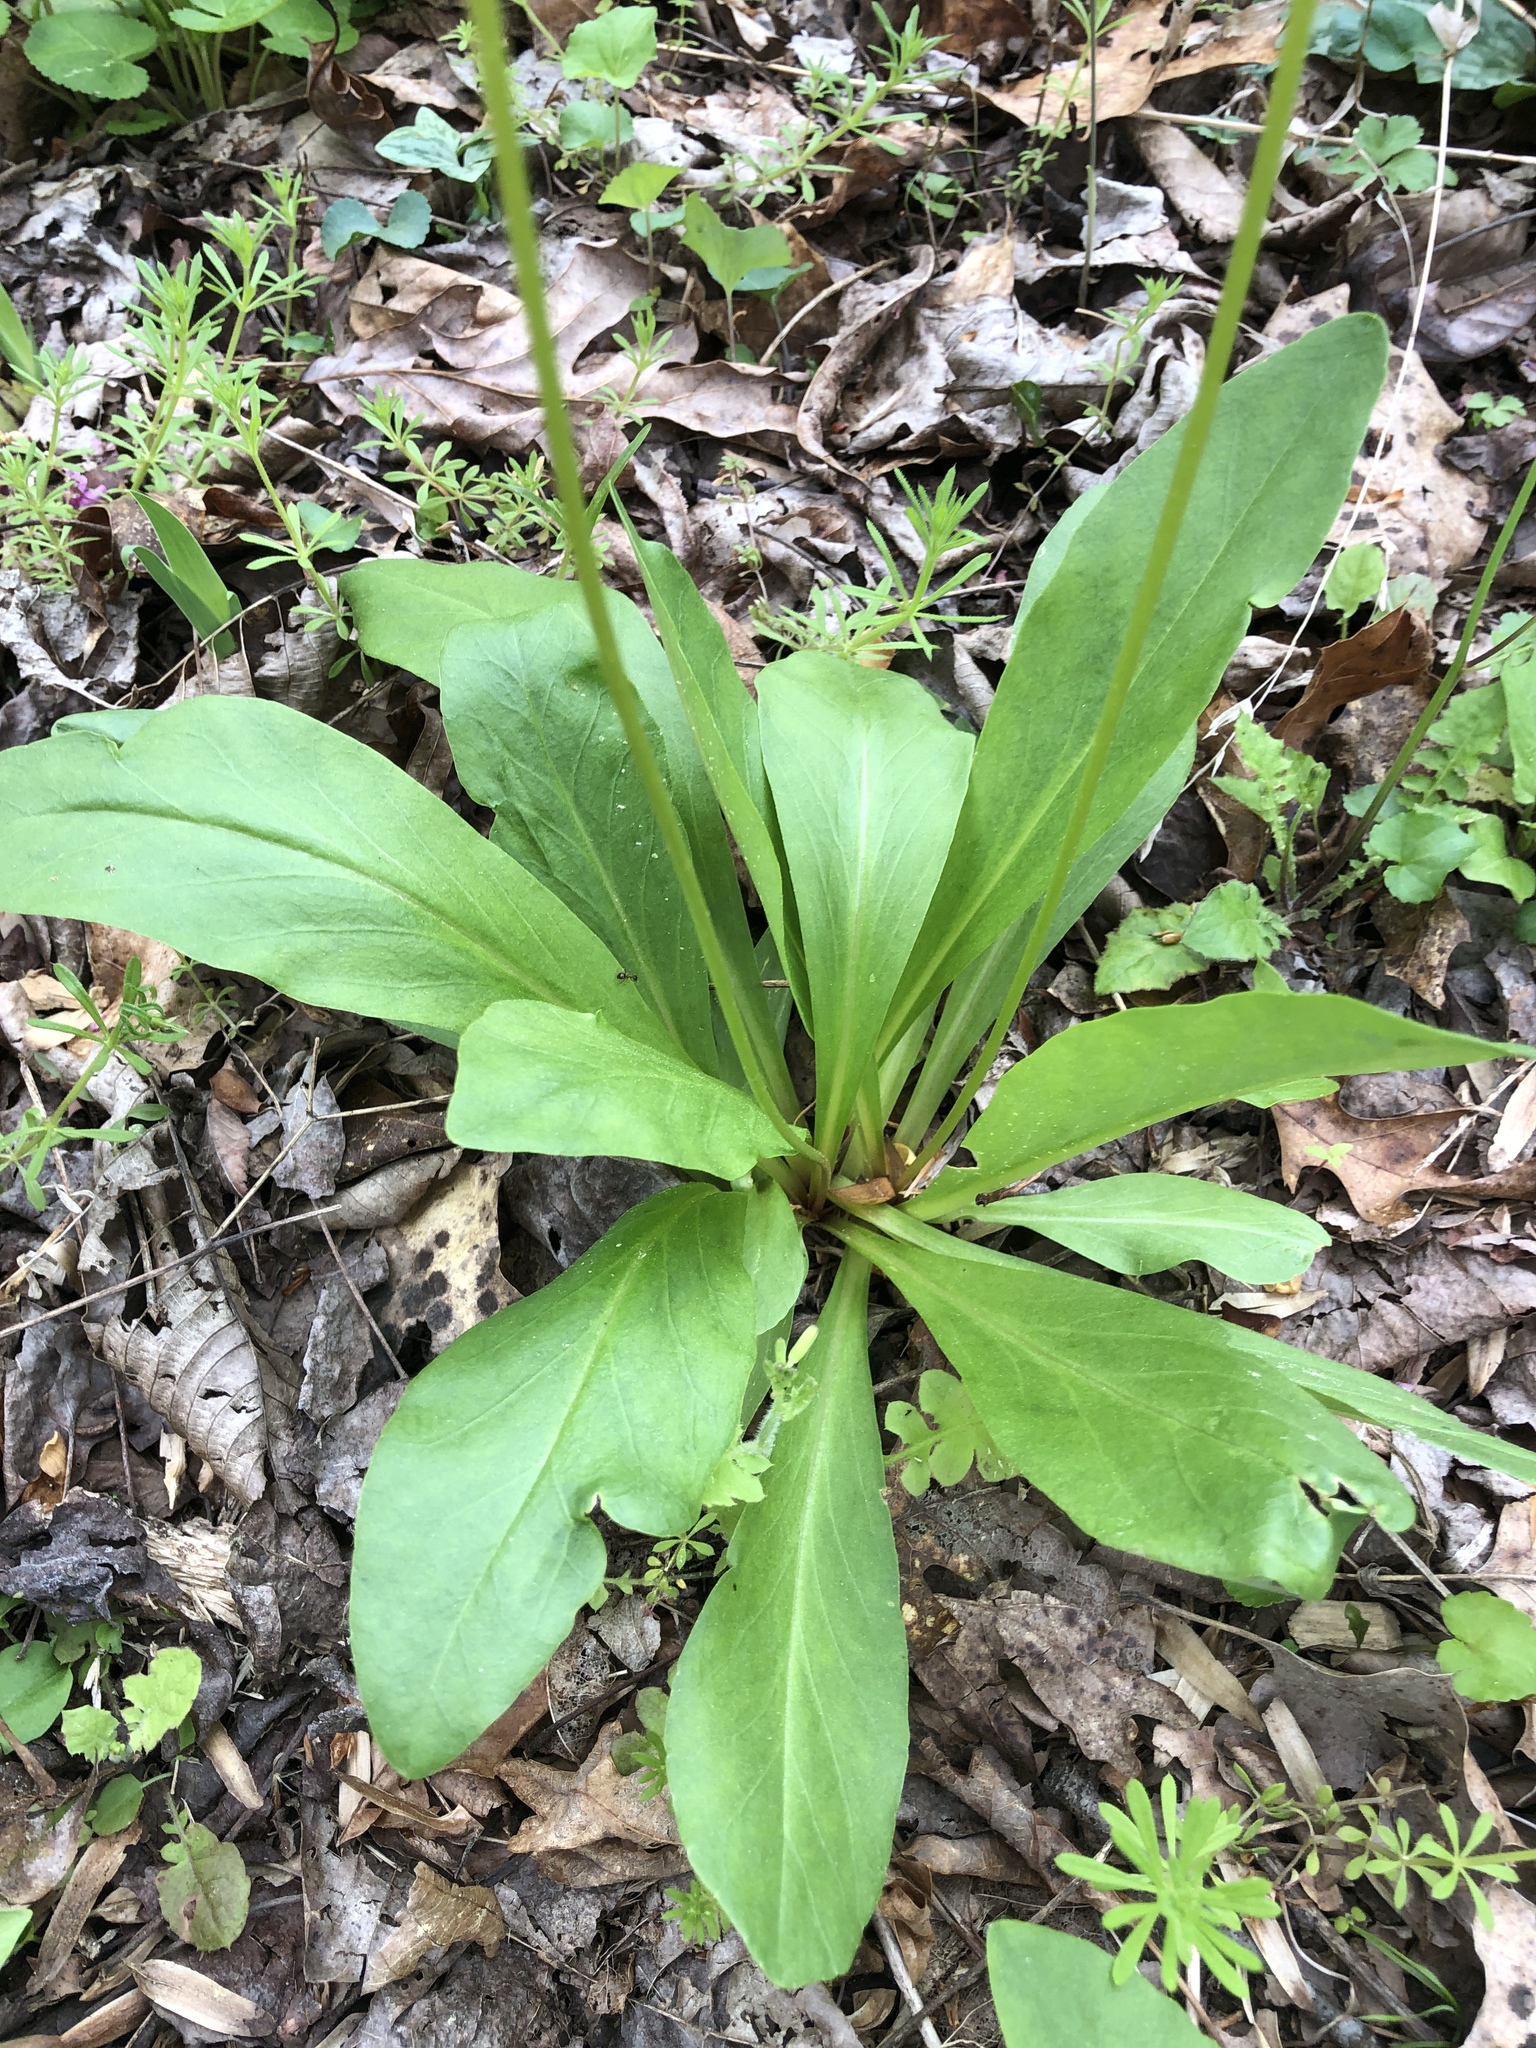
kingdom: Plantae
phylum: Tracheophyta
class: Magnoliopsida
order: Ericales
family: Primulaceae
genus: Dodecatheon
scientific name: Dodecatheon meadia
